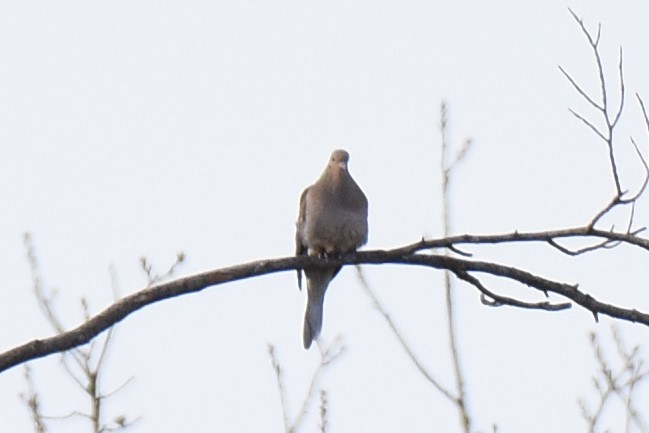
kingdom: Animalia
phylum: Chordata
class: Aves
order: Columbiformes
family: Columbidae
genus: Zenaida
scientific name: Zenaida macroura
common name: Mourning dove
